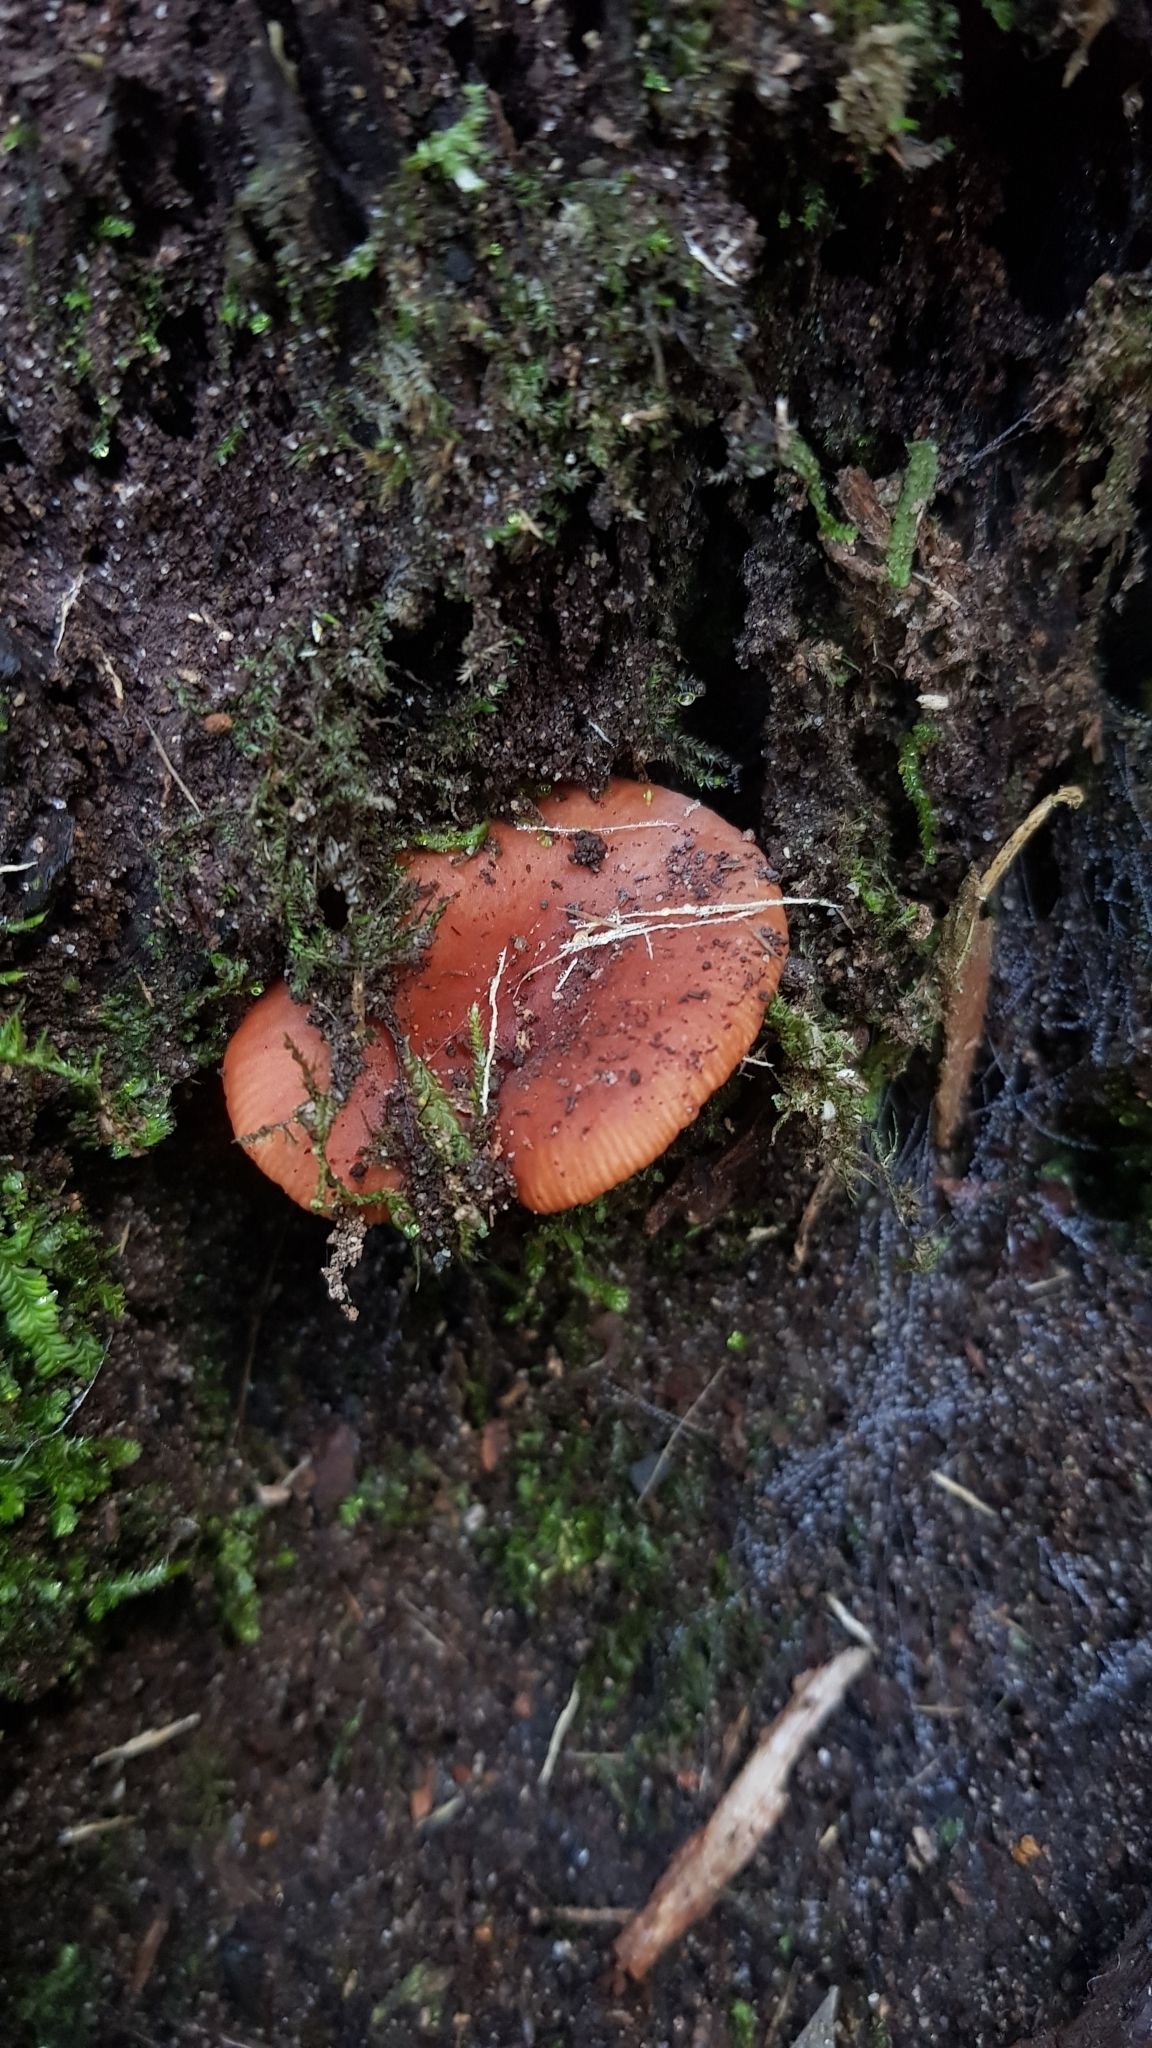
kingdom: Fungi
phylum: Basidiomycota
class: Agaricomycetes
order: Russulales
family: Russulaceae
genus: Lactarius
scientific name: Lactarius eucalypti
